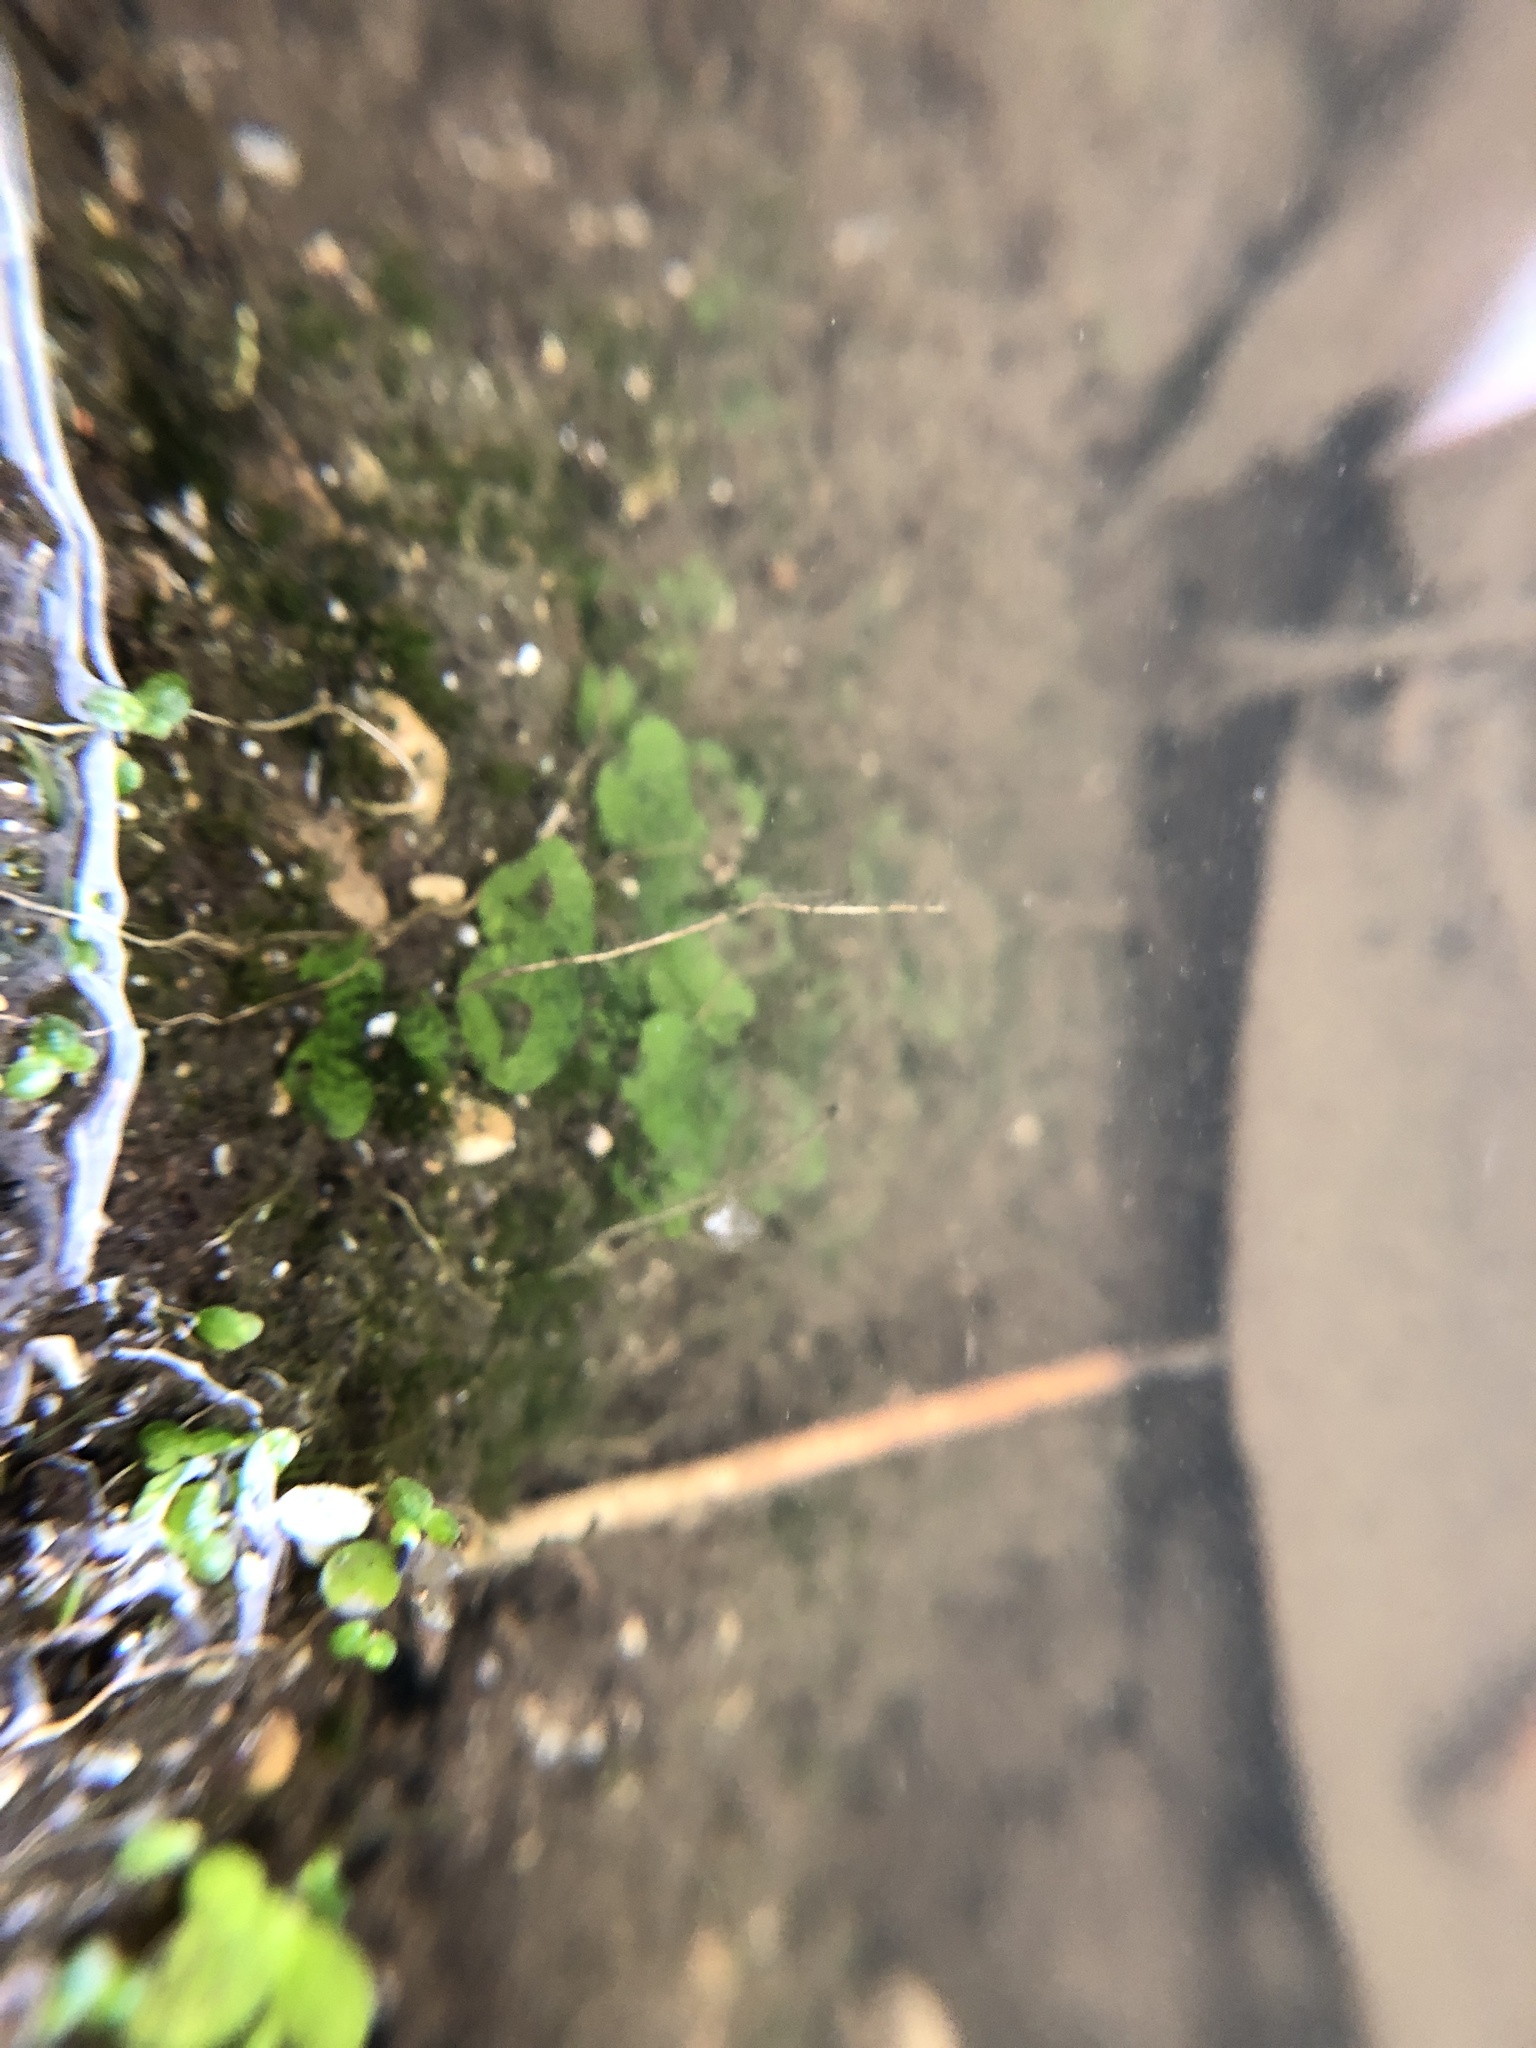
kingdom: Plantae
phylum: Marchantiophyta
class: Marchantiopsida
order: Lunulariales
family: Lunulariaceae
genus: Lunularia
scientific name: Lunularia cruciata
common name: Crescent-cup liverwort
